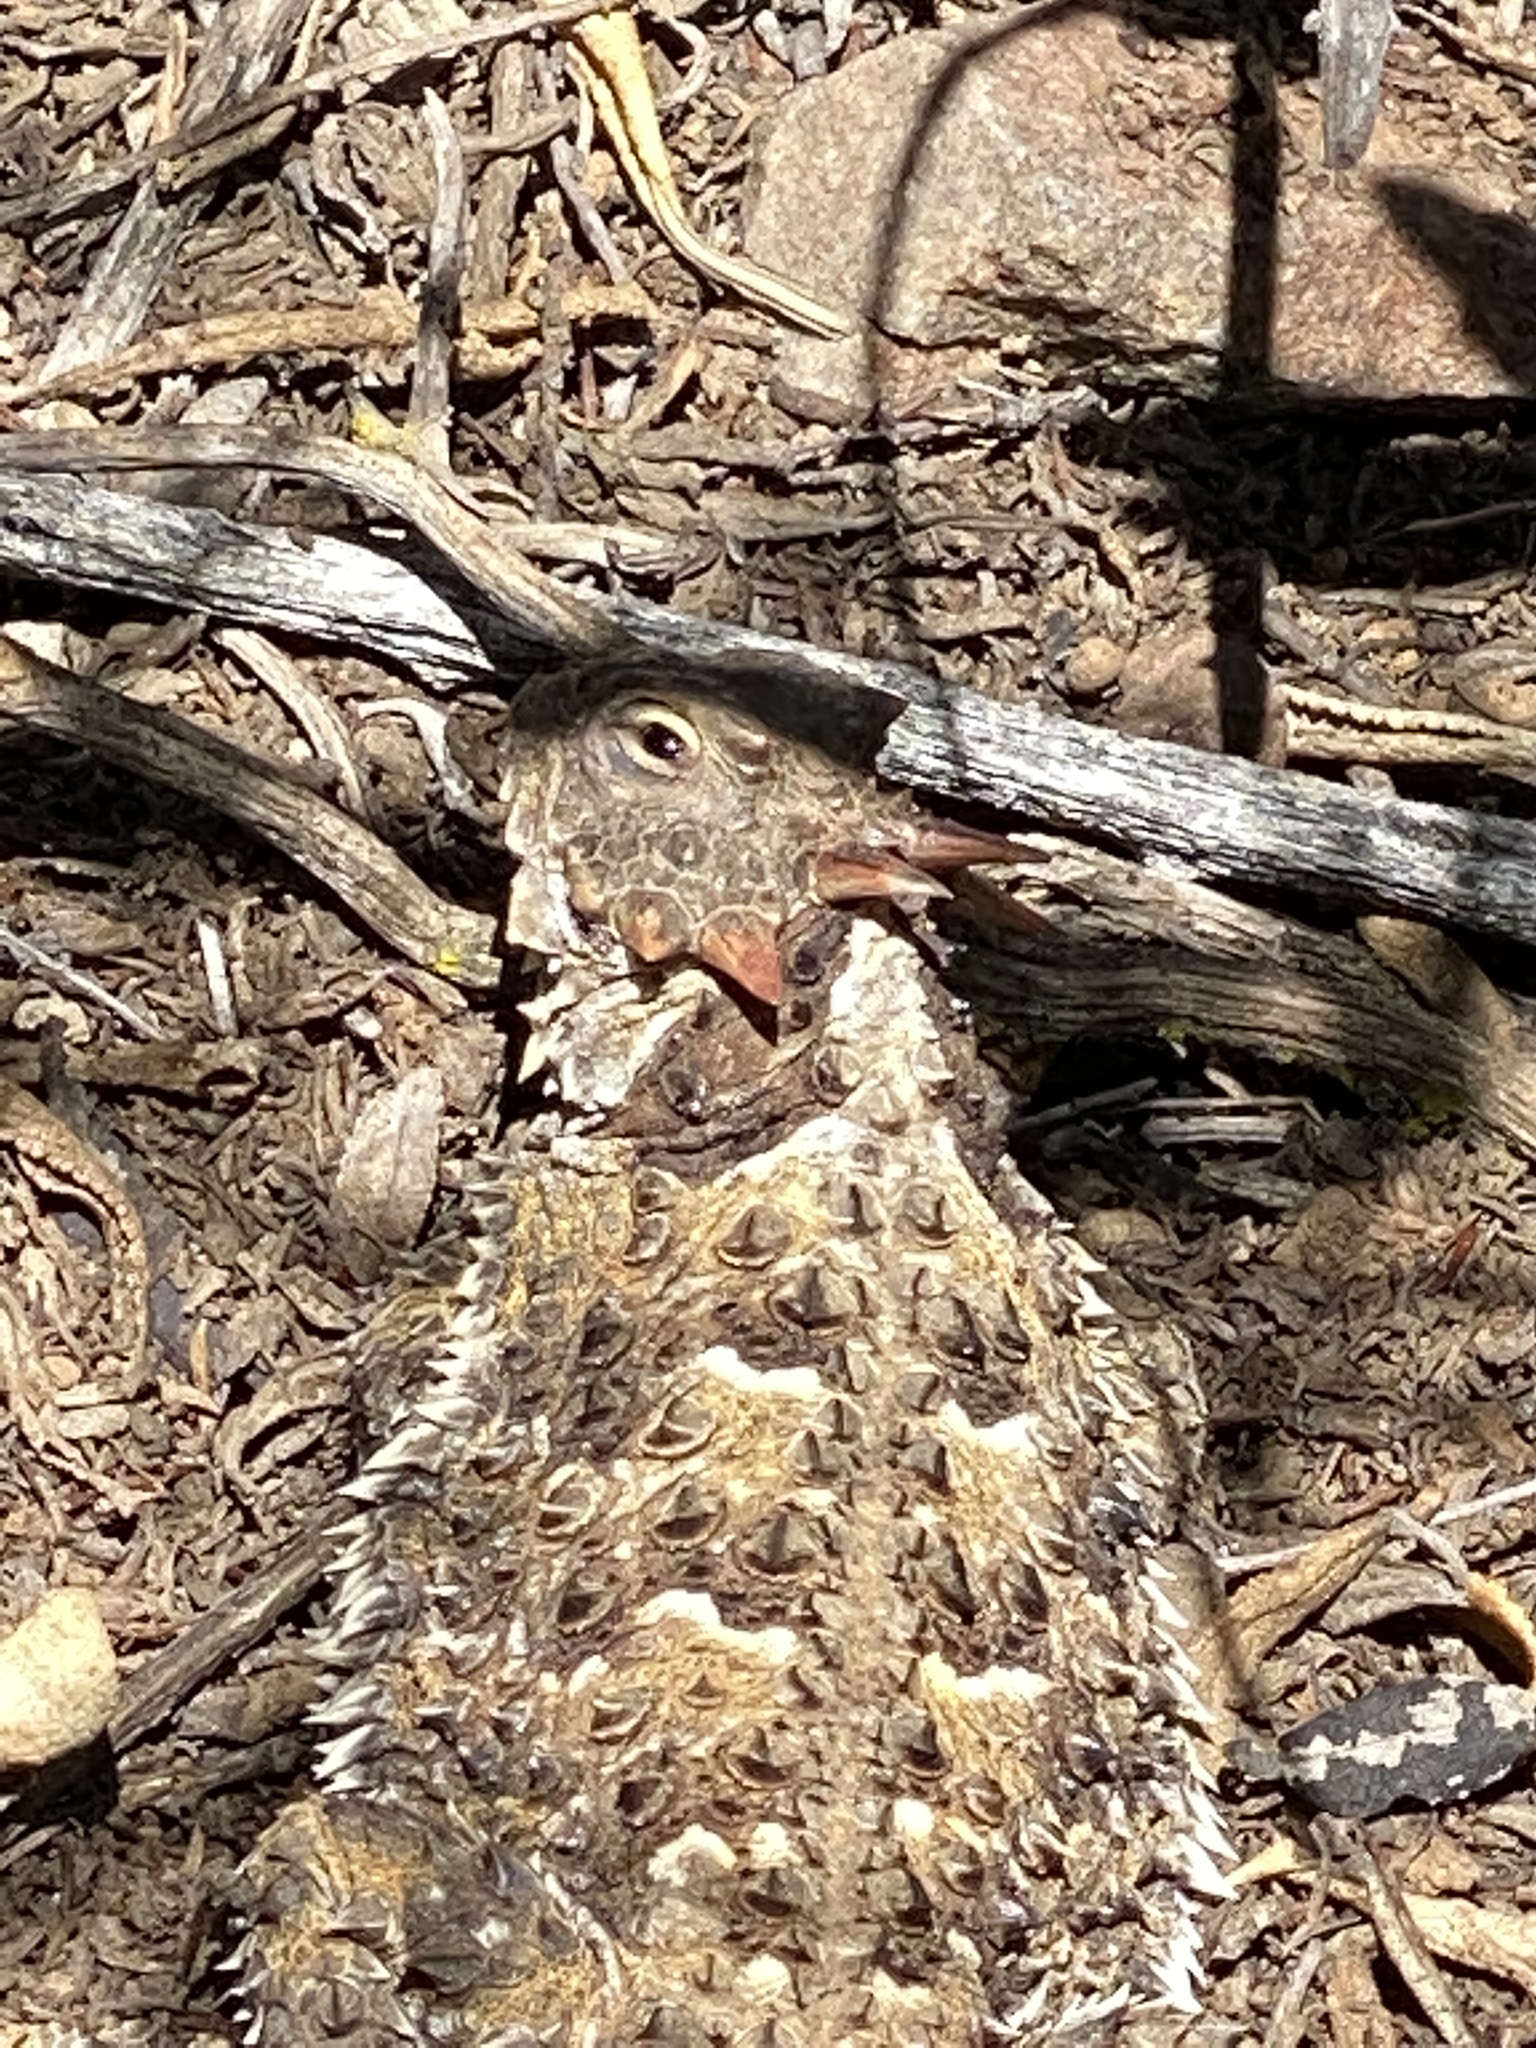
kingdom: Animalia
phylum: Chordata
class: Squamata
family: Phrynosomatidae
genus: Phrynosoma
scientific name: Phrynosoma blainvillii
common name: San diego horned lizard
